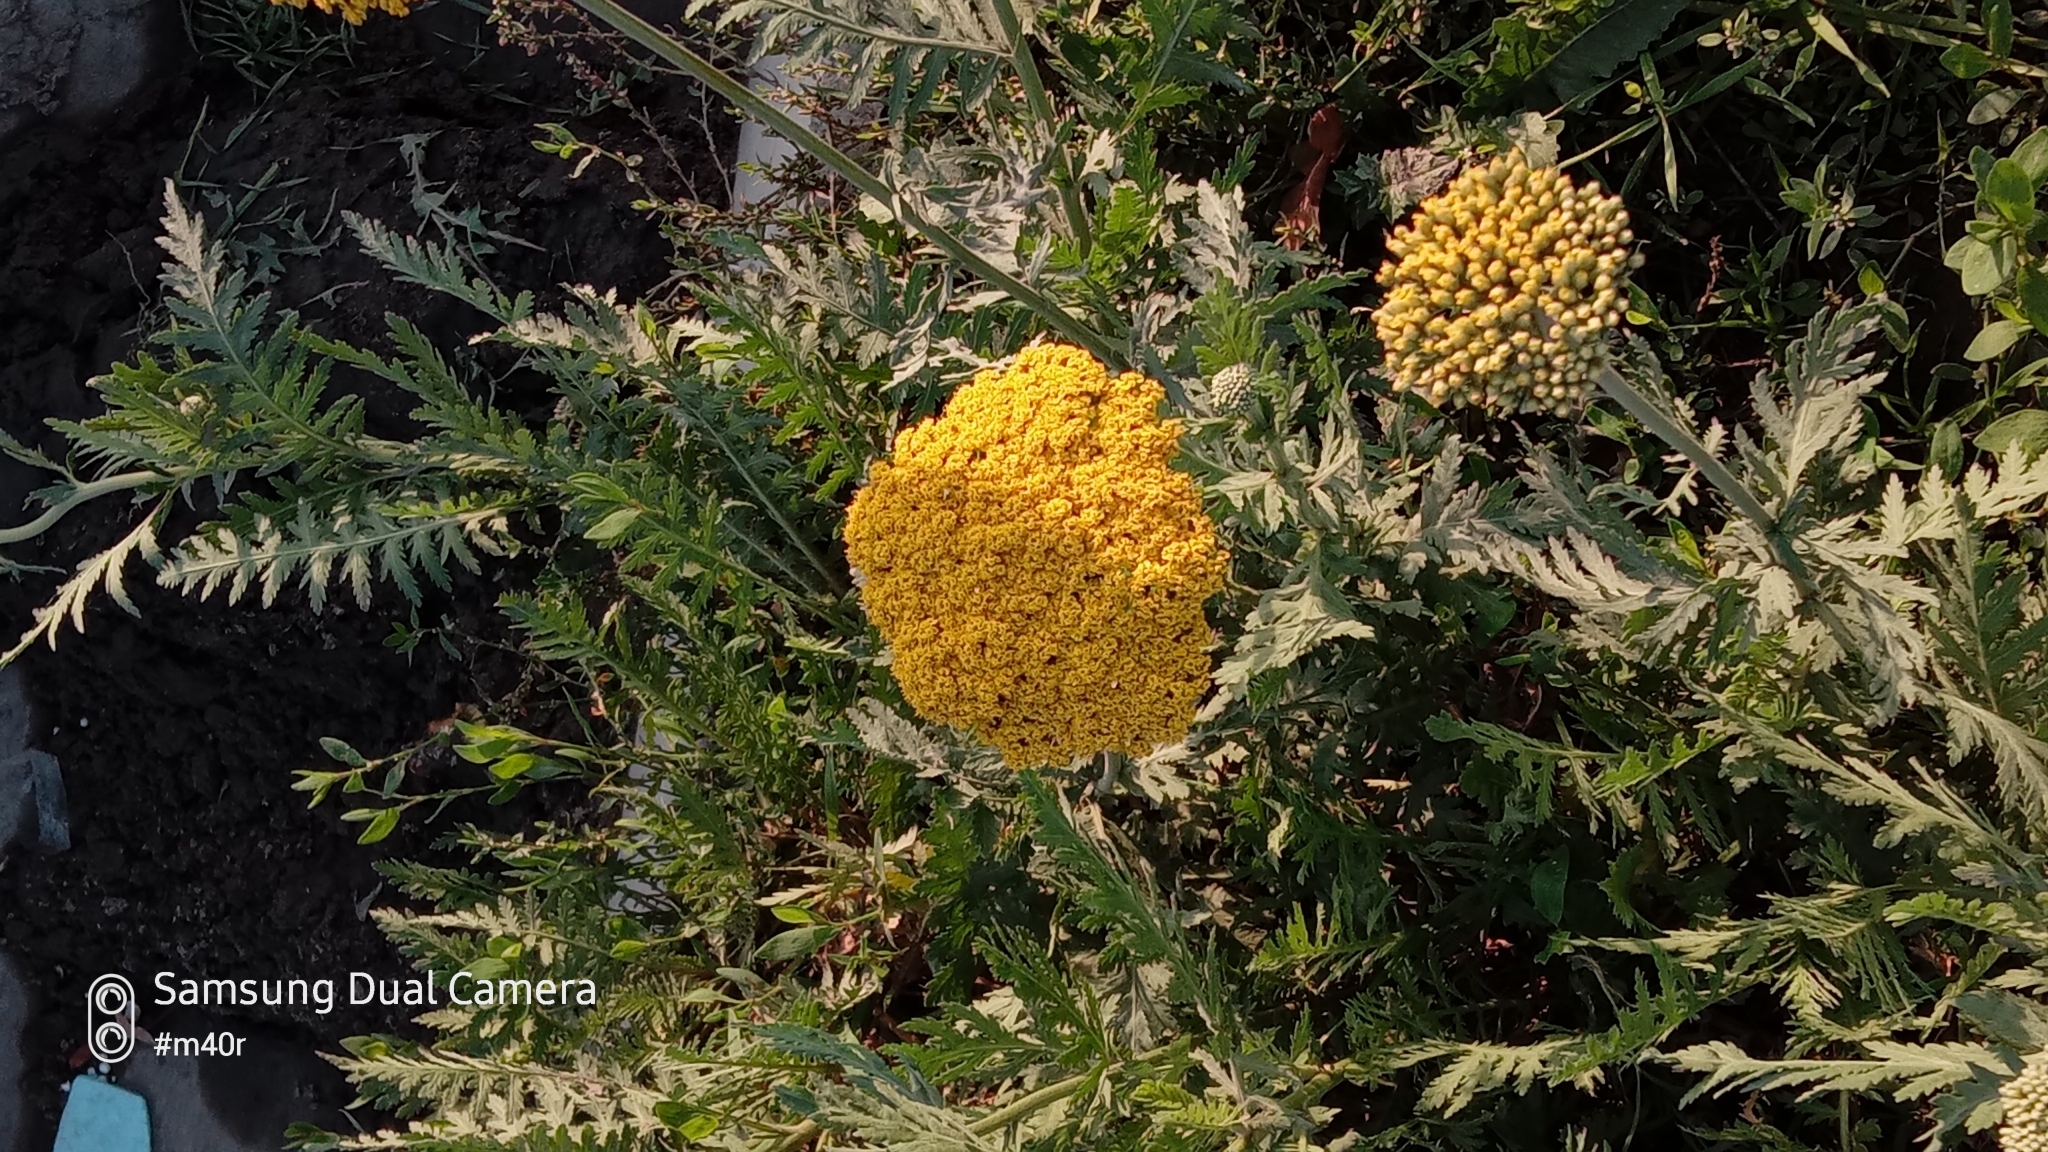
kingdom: Plantae
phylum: Tracheophyta
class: Magnoliopsida
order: Asterales
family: Asteraceae
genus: Achillea
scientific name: Achillea filipendulina
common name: Fernleaf yarrow
